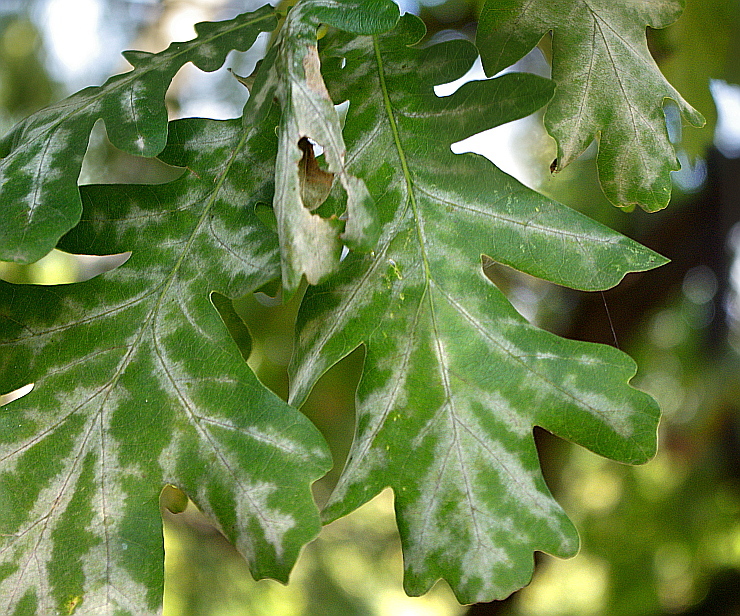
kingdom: Plantae
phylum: Tracheophyta
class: Magnoliopsida
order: Fagales
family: Fagaceae
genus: Quercus
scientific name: Quercus robur
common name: Pedunculate oak
